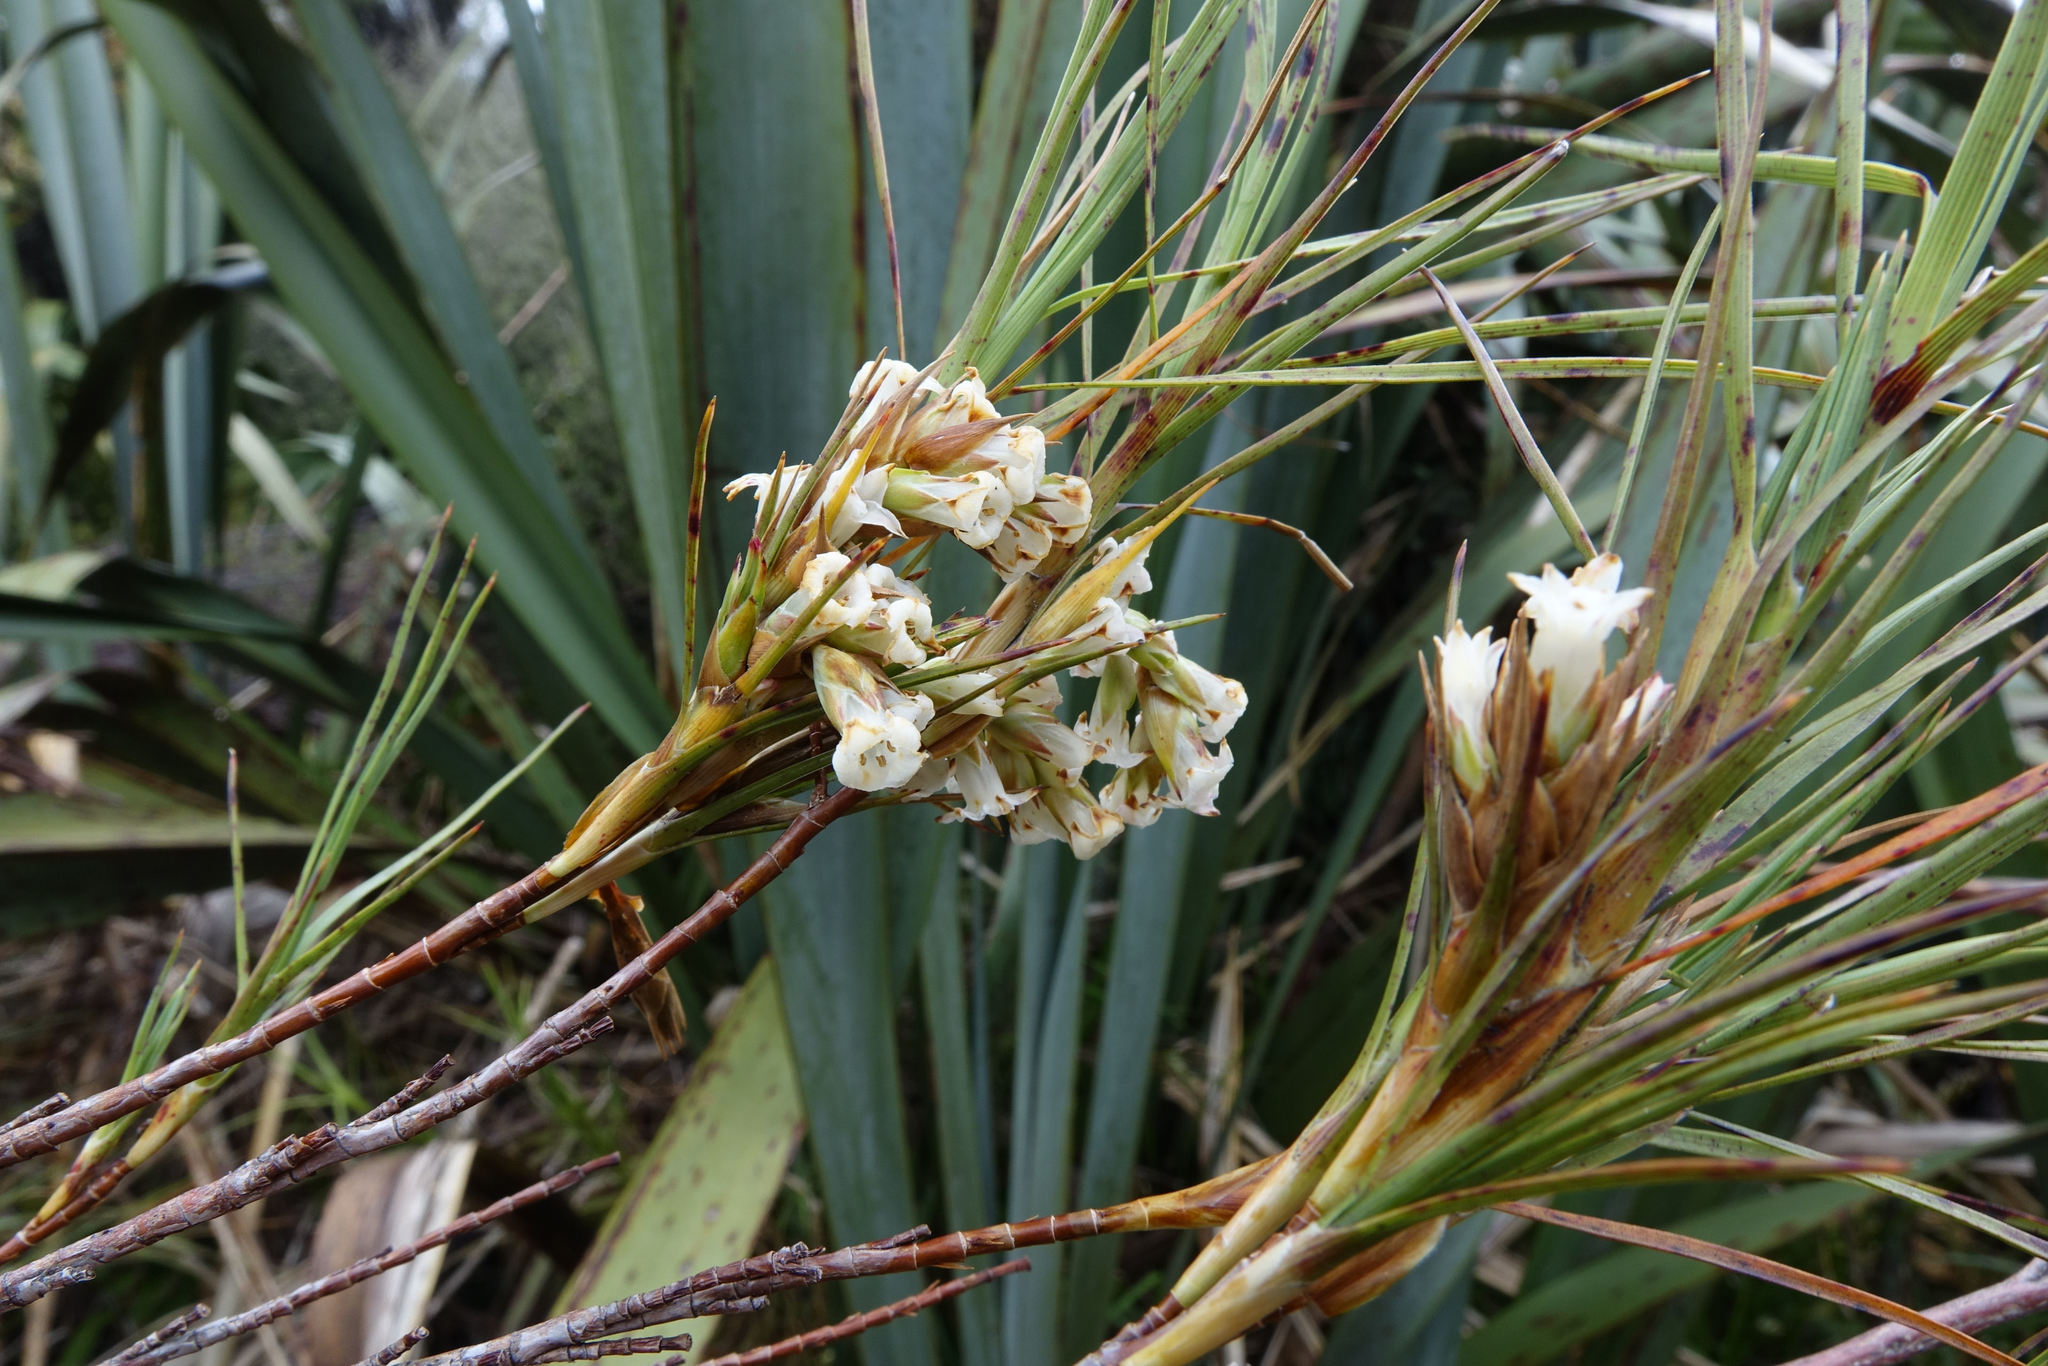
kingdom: Plantae
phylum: Tracheophyta
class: Magnoliopsida
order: Ericales
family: Ericaceae
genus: Dracophyllum
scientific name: Dracophyllum longifolium
